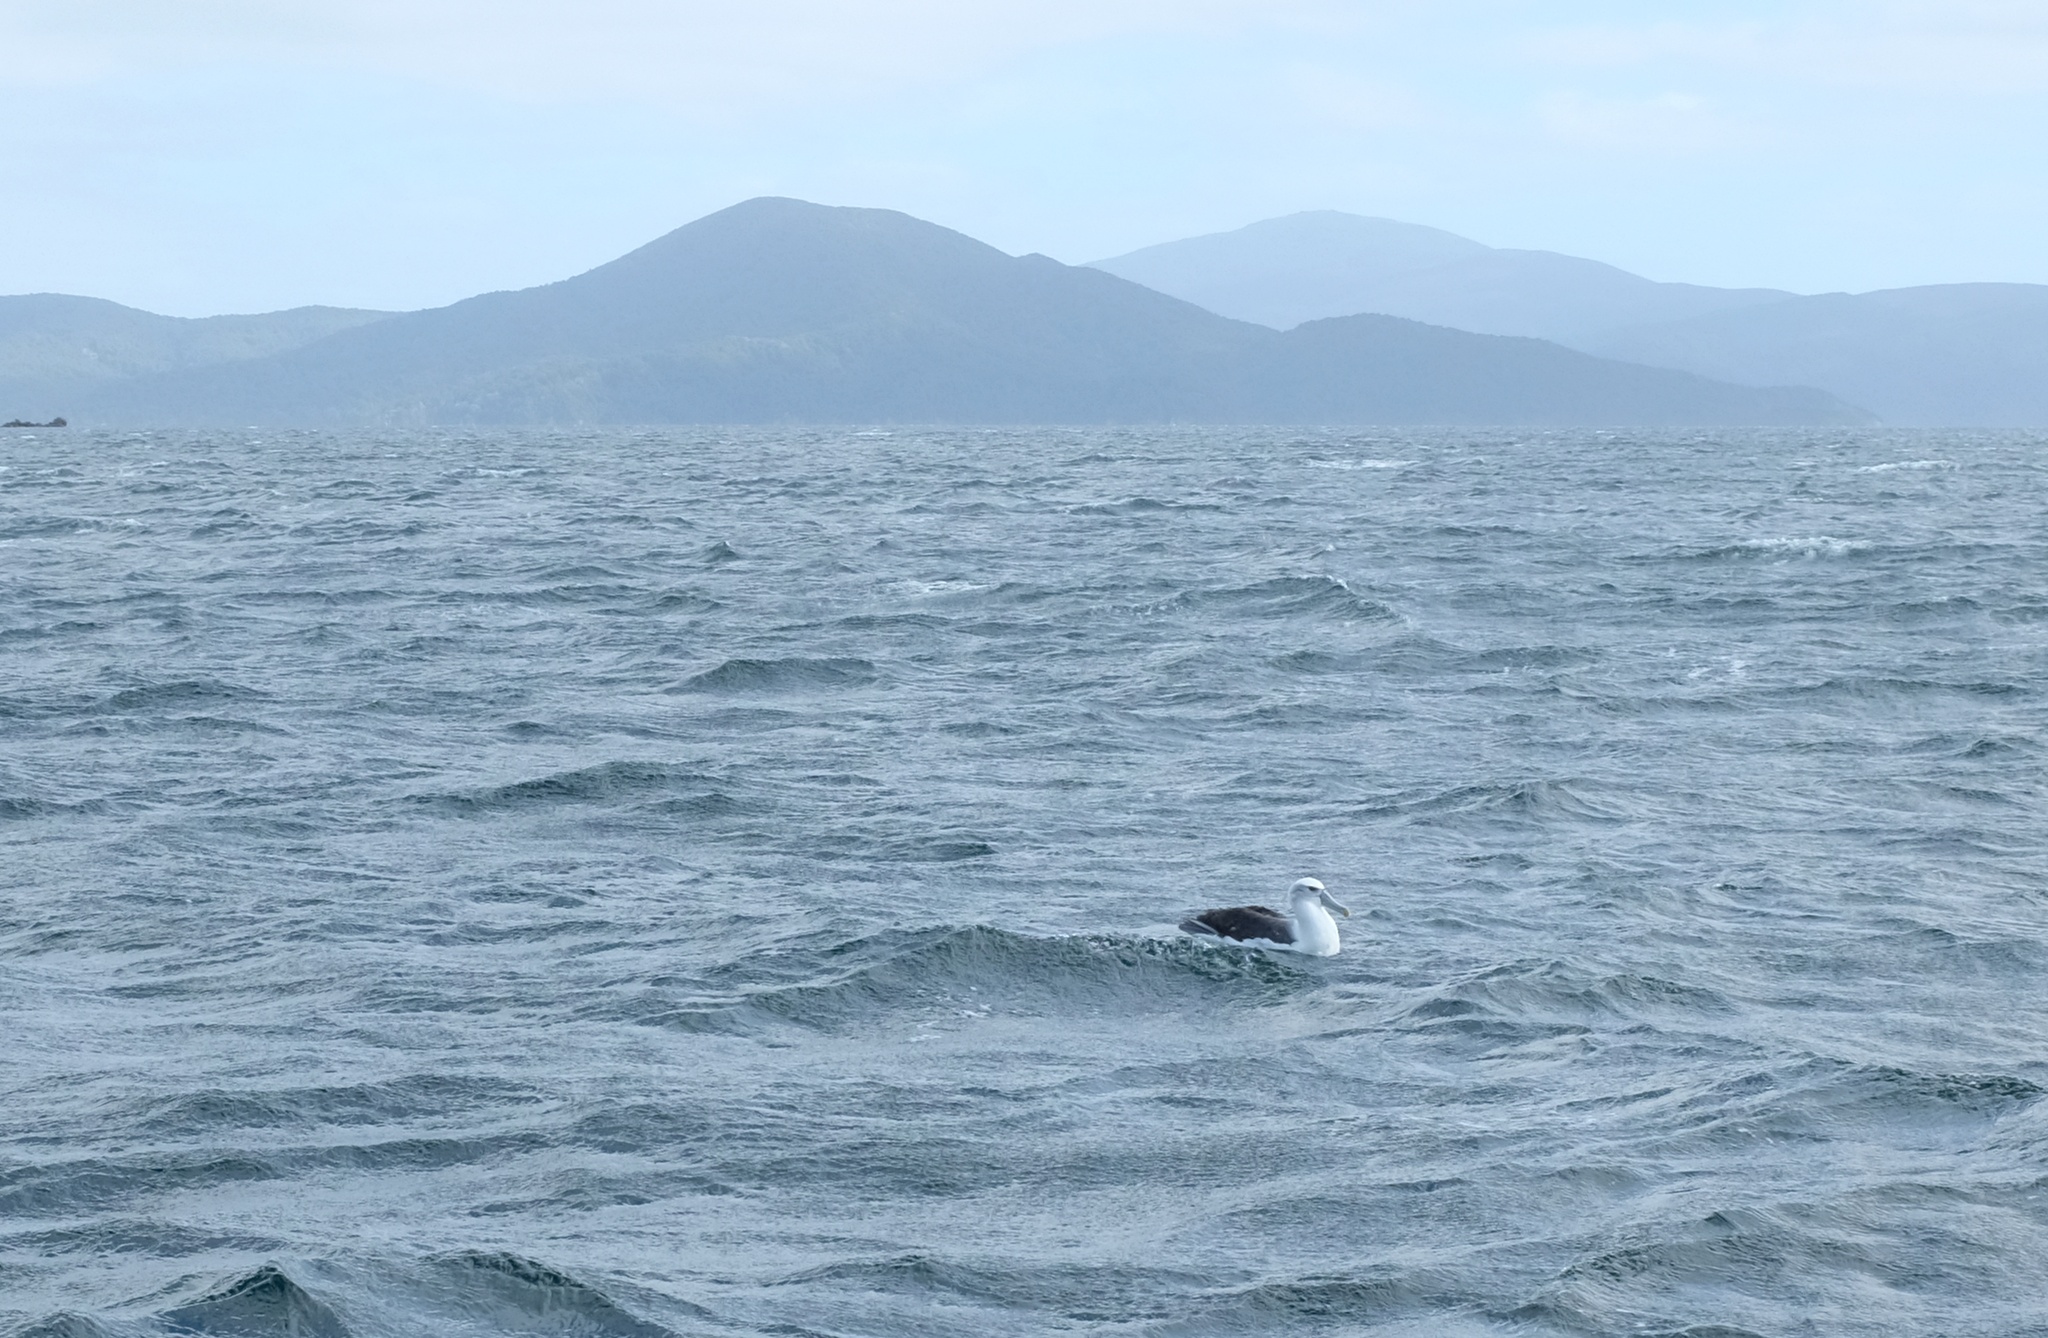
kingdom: Animalia
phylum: Chordata
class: Aves
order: Procellariiformes
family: Diomedeidae
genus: Thalassarche
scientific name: Thalassarche cauta
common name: Shy albatross
